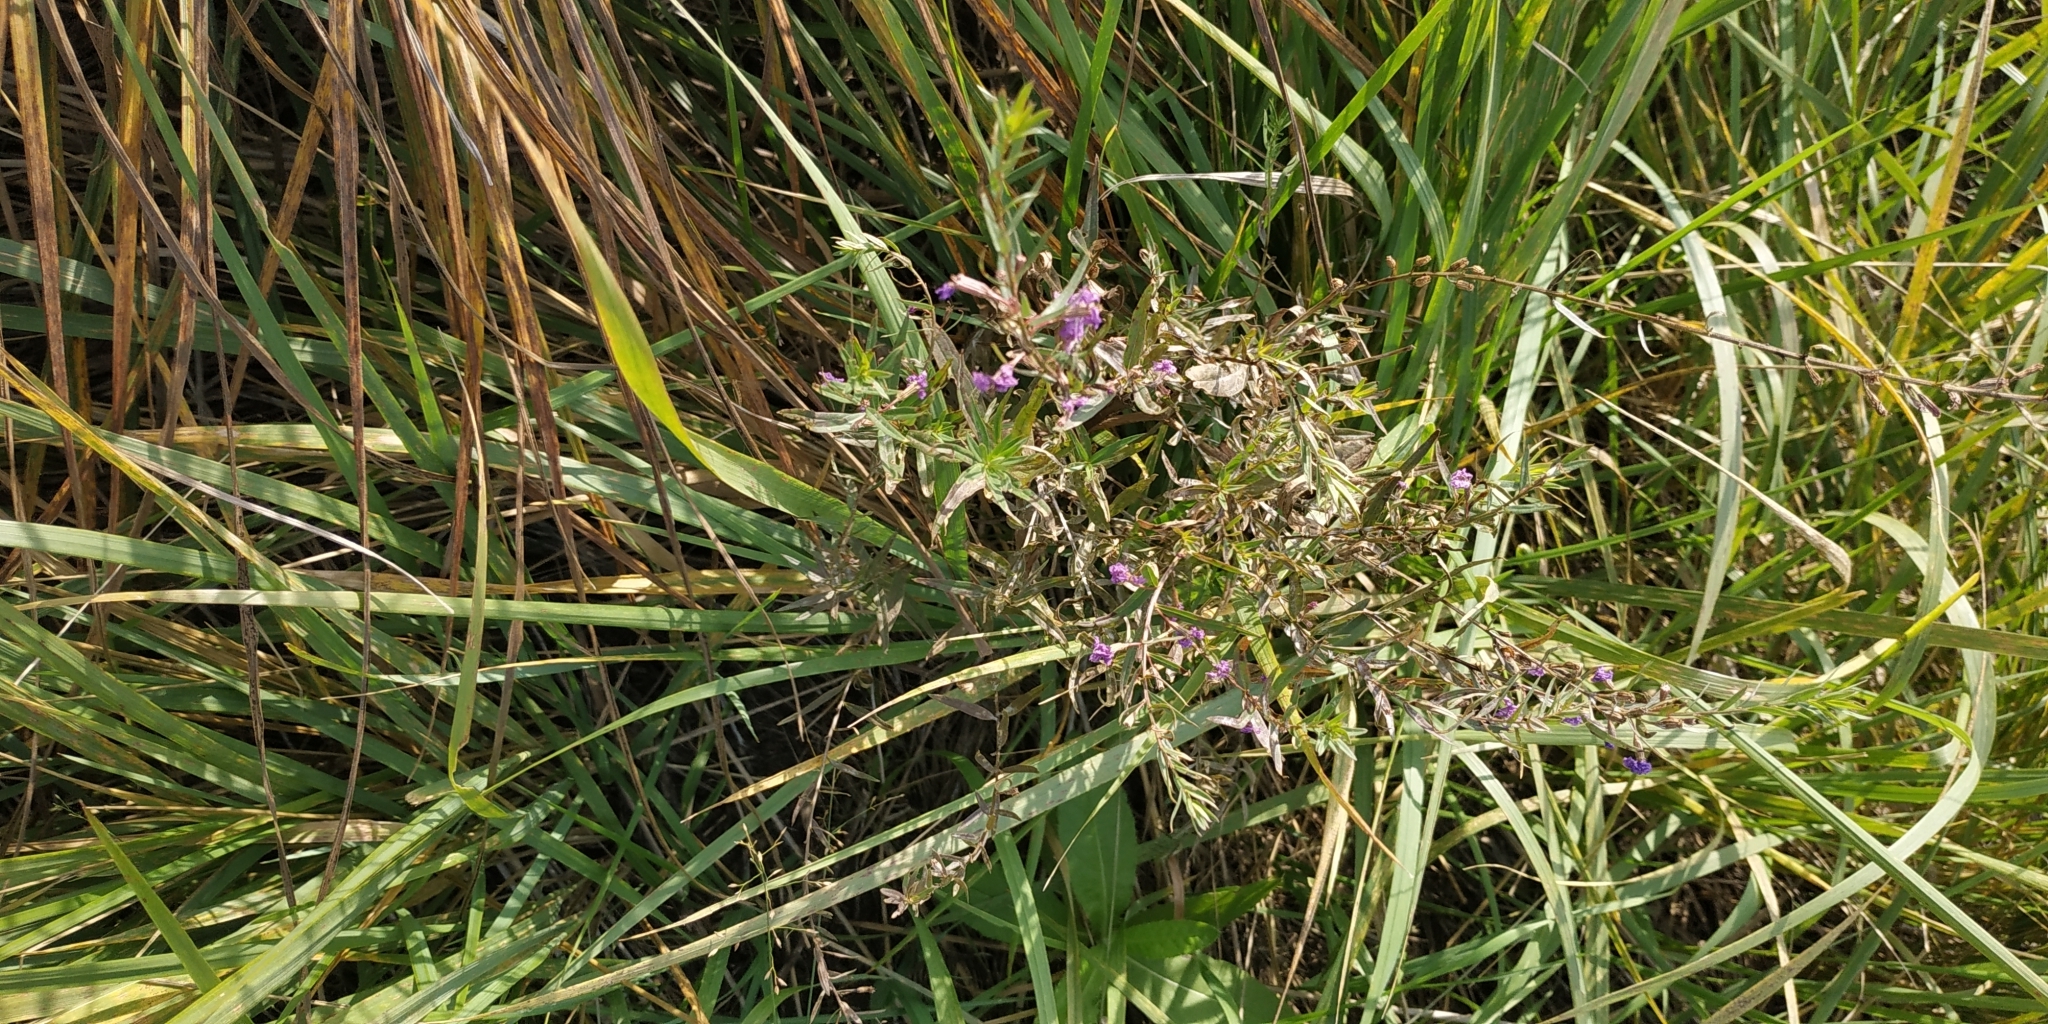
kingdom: Plantae
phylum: Tracheophyta
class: Magnoliopsida
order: Myrtales
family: Lythraceae
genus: Lythrum
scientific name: Lythrum virgatum
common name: European wand loosestrife
